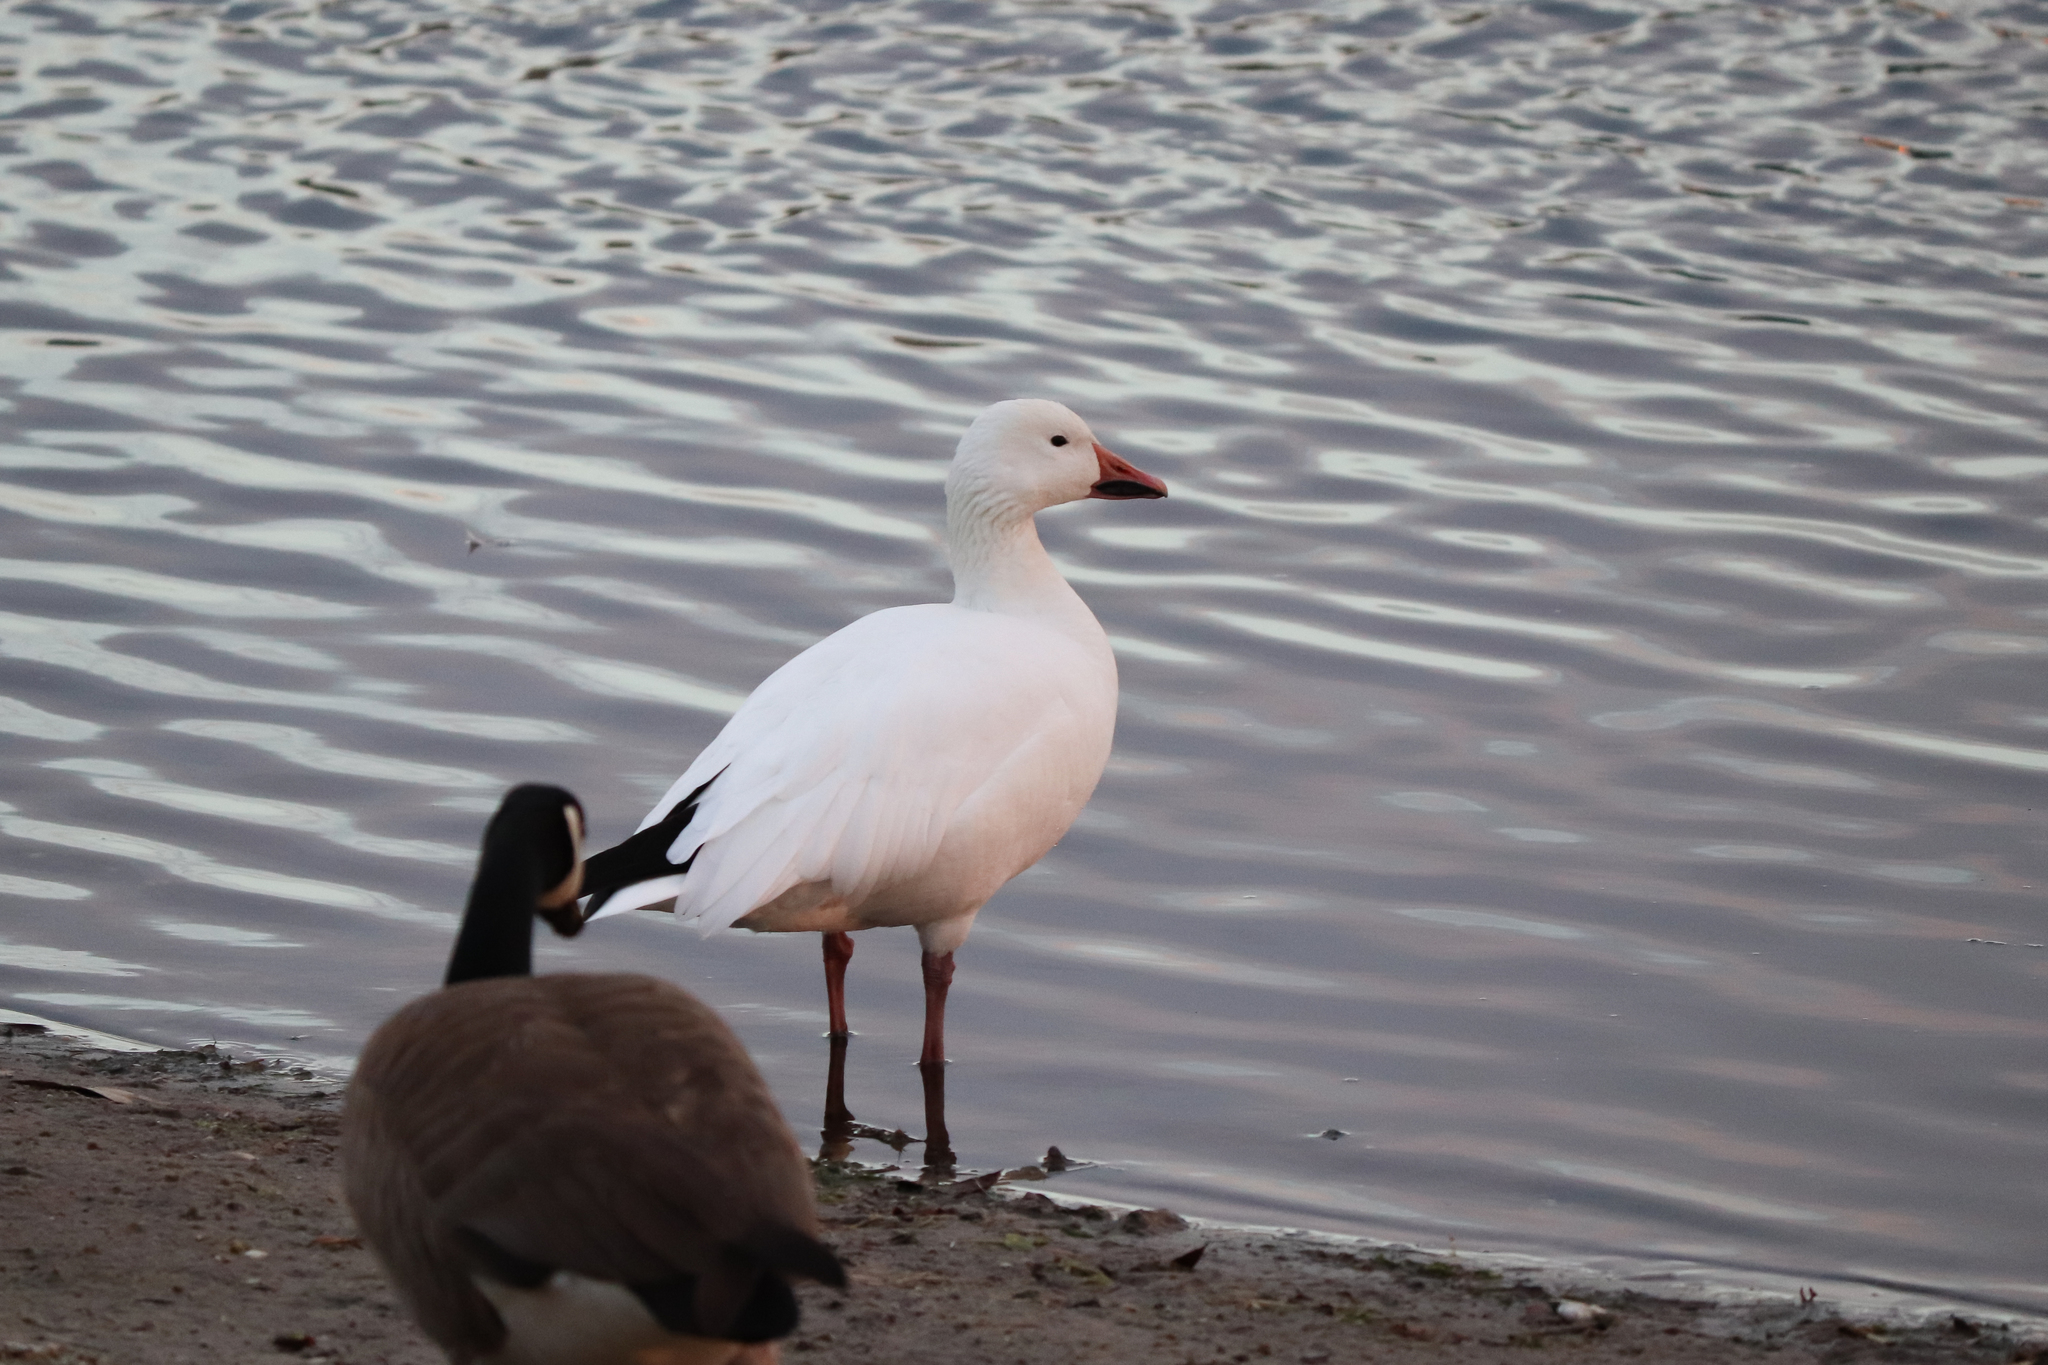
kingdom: Animalia
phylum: Chordata
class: Aves
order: Anseriformes
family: Anatidae
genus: Anser
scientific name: Anser caerulescens
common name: Snow goose
